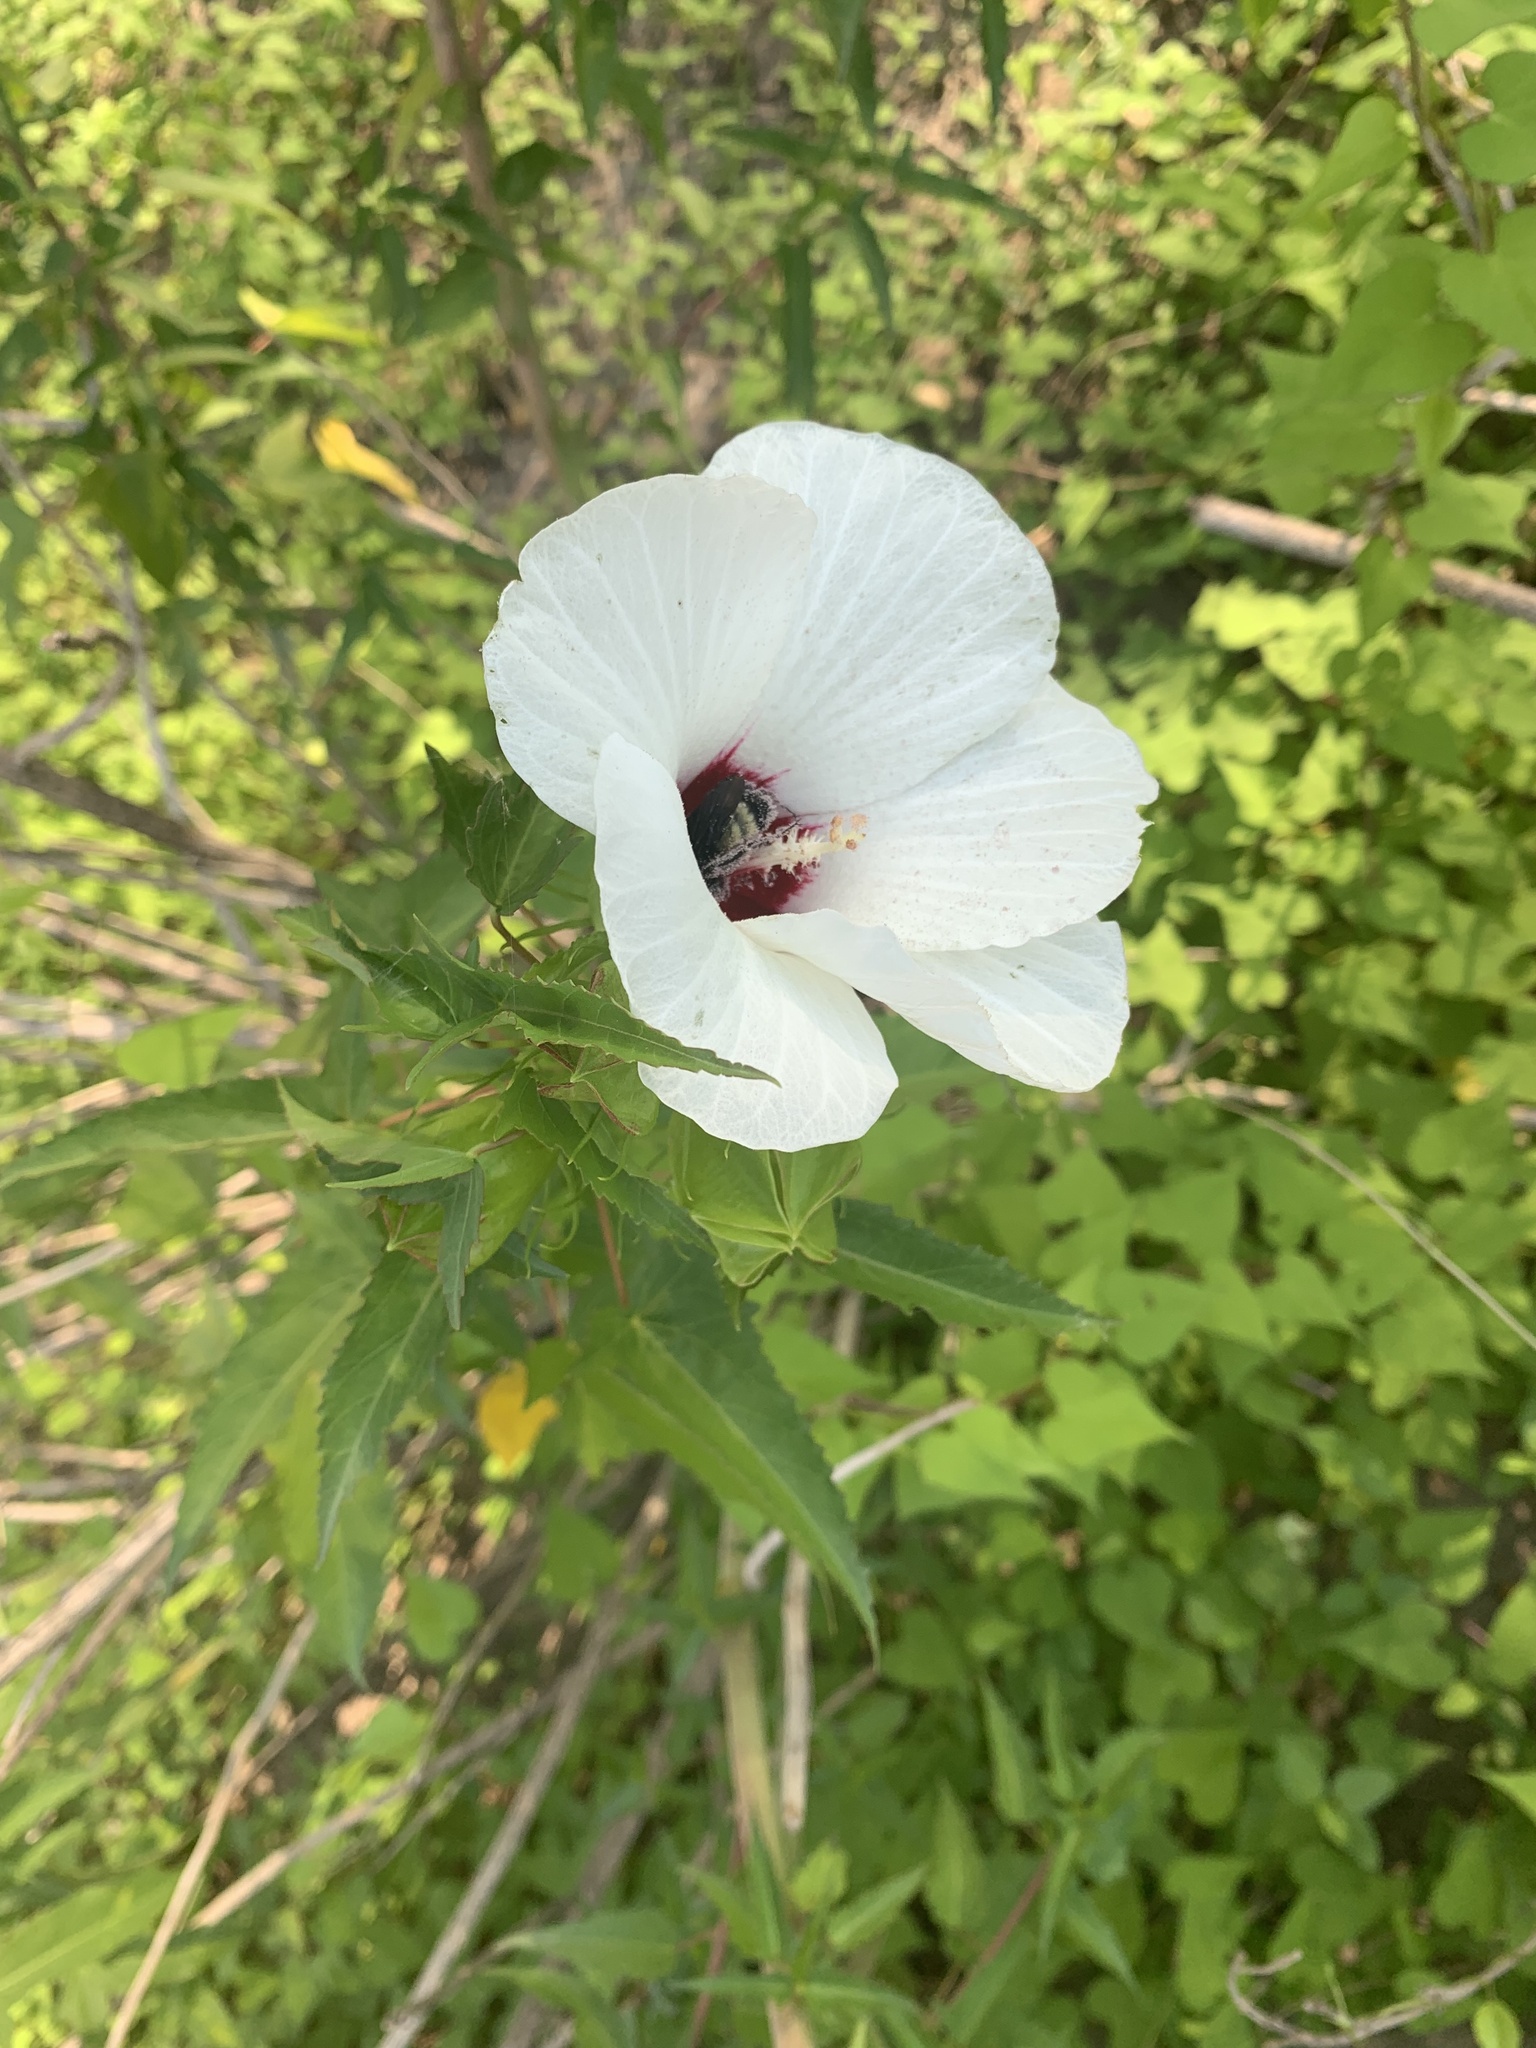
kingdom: Plantae
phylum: Tracheophyta
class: Magnoliopsida
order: Malvales
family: Malvaceae
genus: Hibiscus
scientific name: Hibiscus laevis
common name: Scarlet rose-mallow
